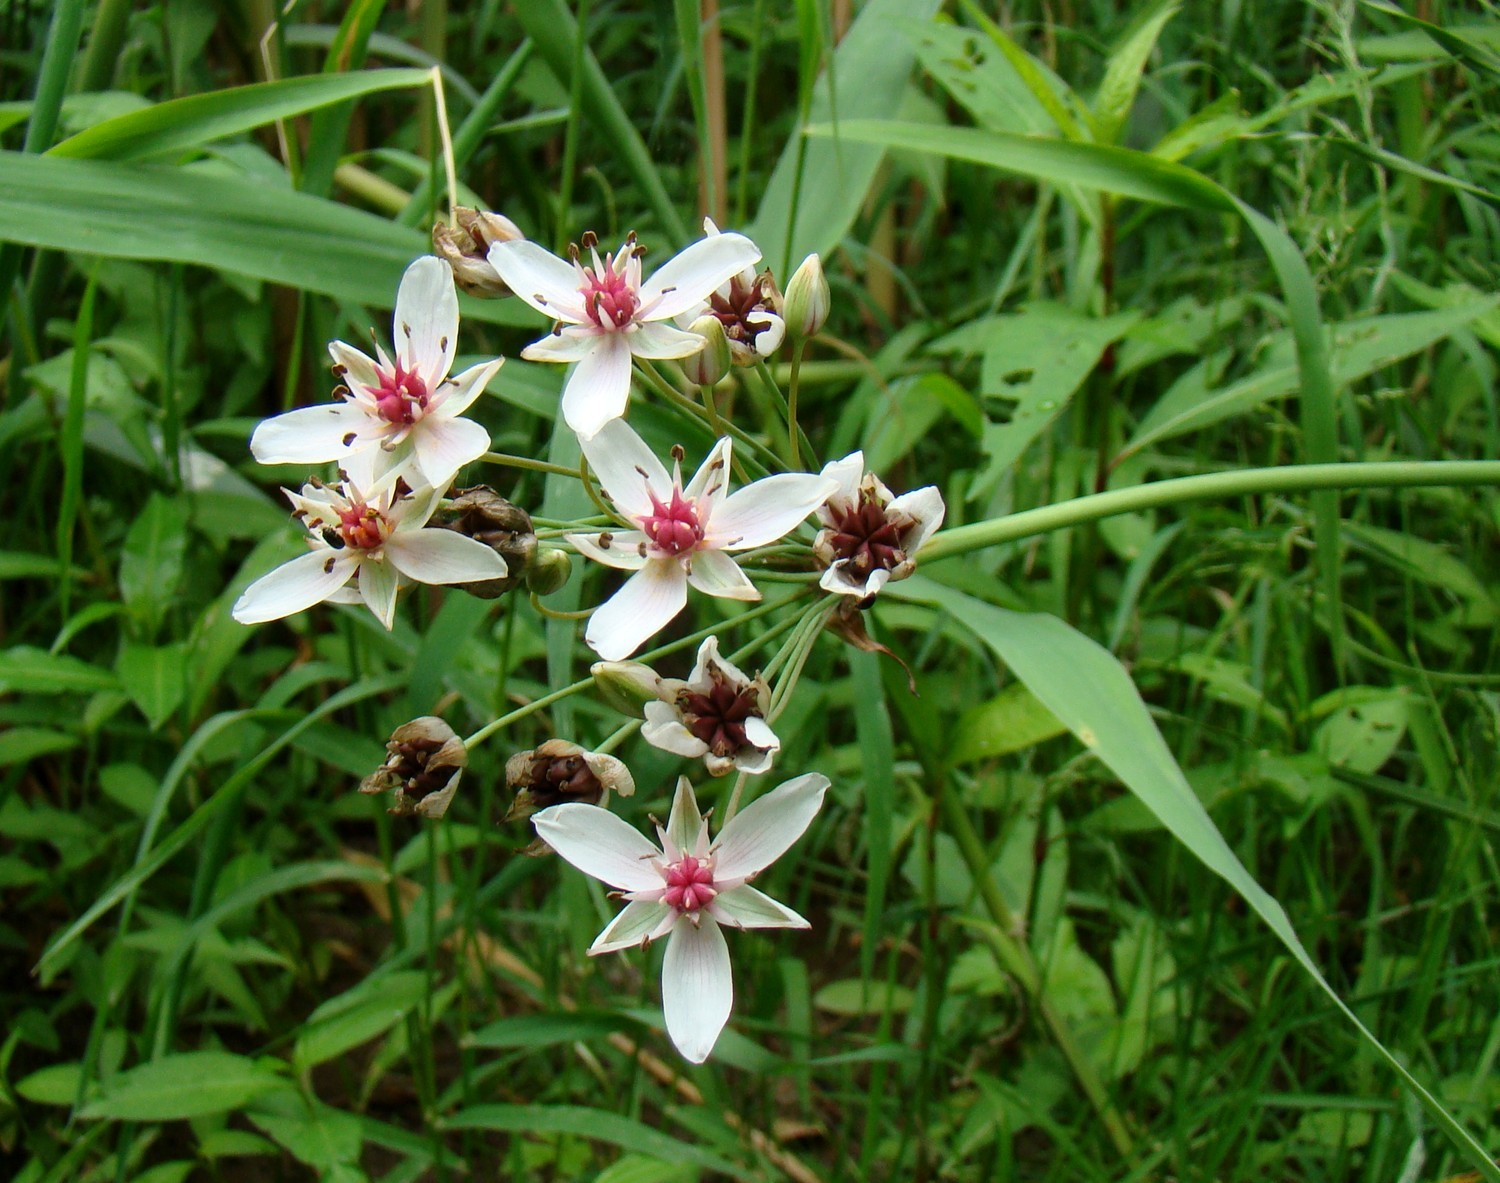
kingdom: Plantae
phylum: Tracheophyta
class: Liliopsida
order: Alismatales
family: Butomaceae
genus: Butomus
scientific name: Butomus umbellatus
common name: Flowering-rush
